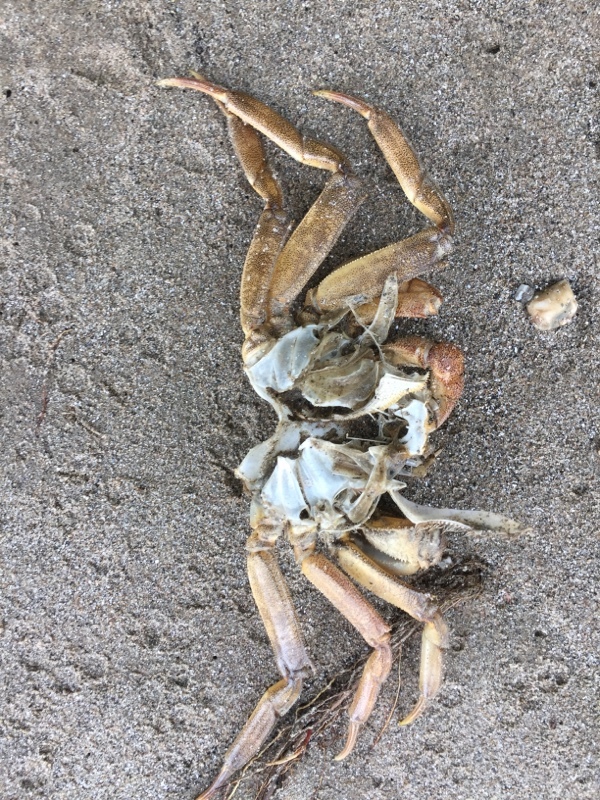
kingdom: Animalia
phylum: Arthropoda
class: Malacostraca
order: Decapoda
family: Varunidae
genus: Eriocheir
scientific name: Eriocheir sinensis
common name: Chinese mitten crab
